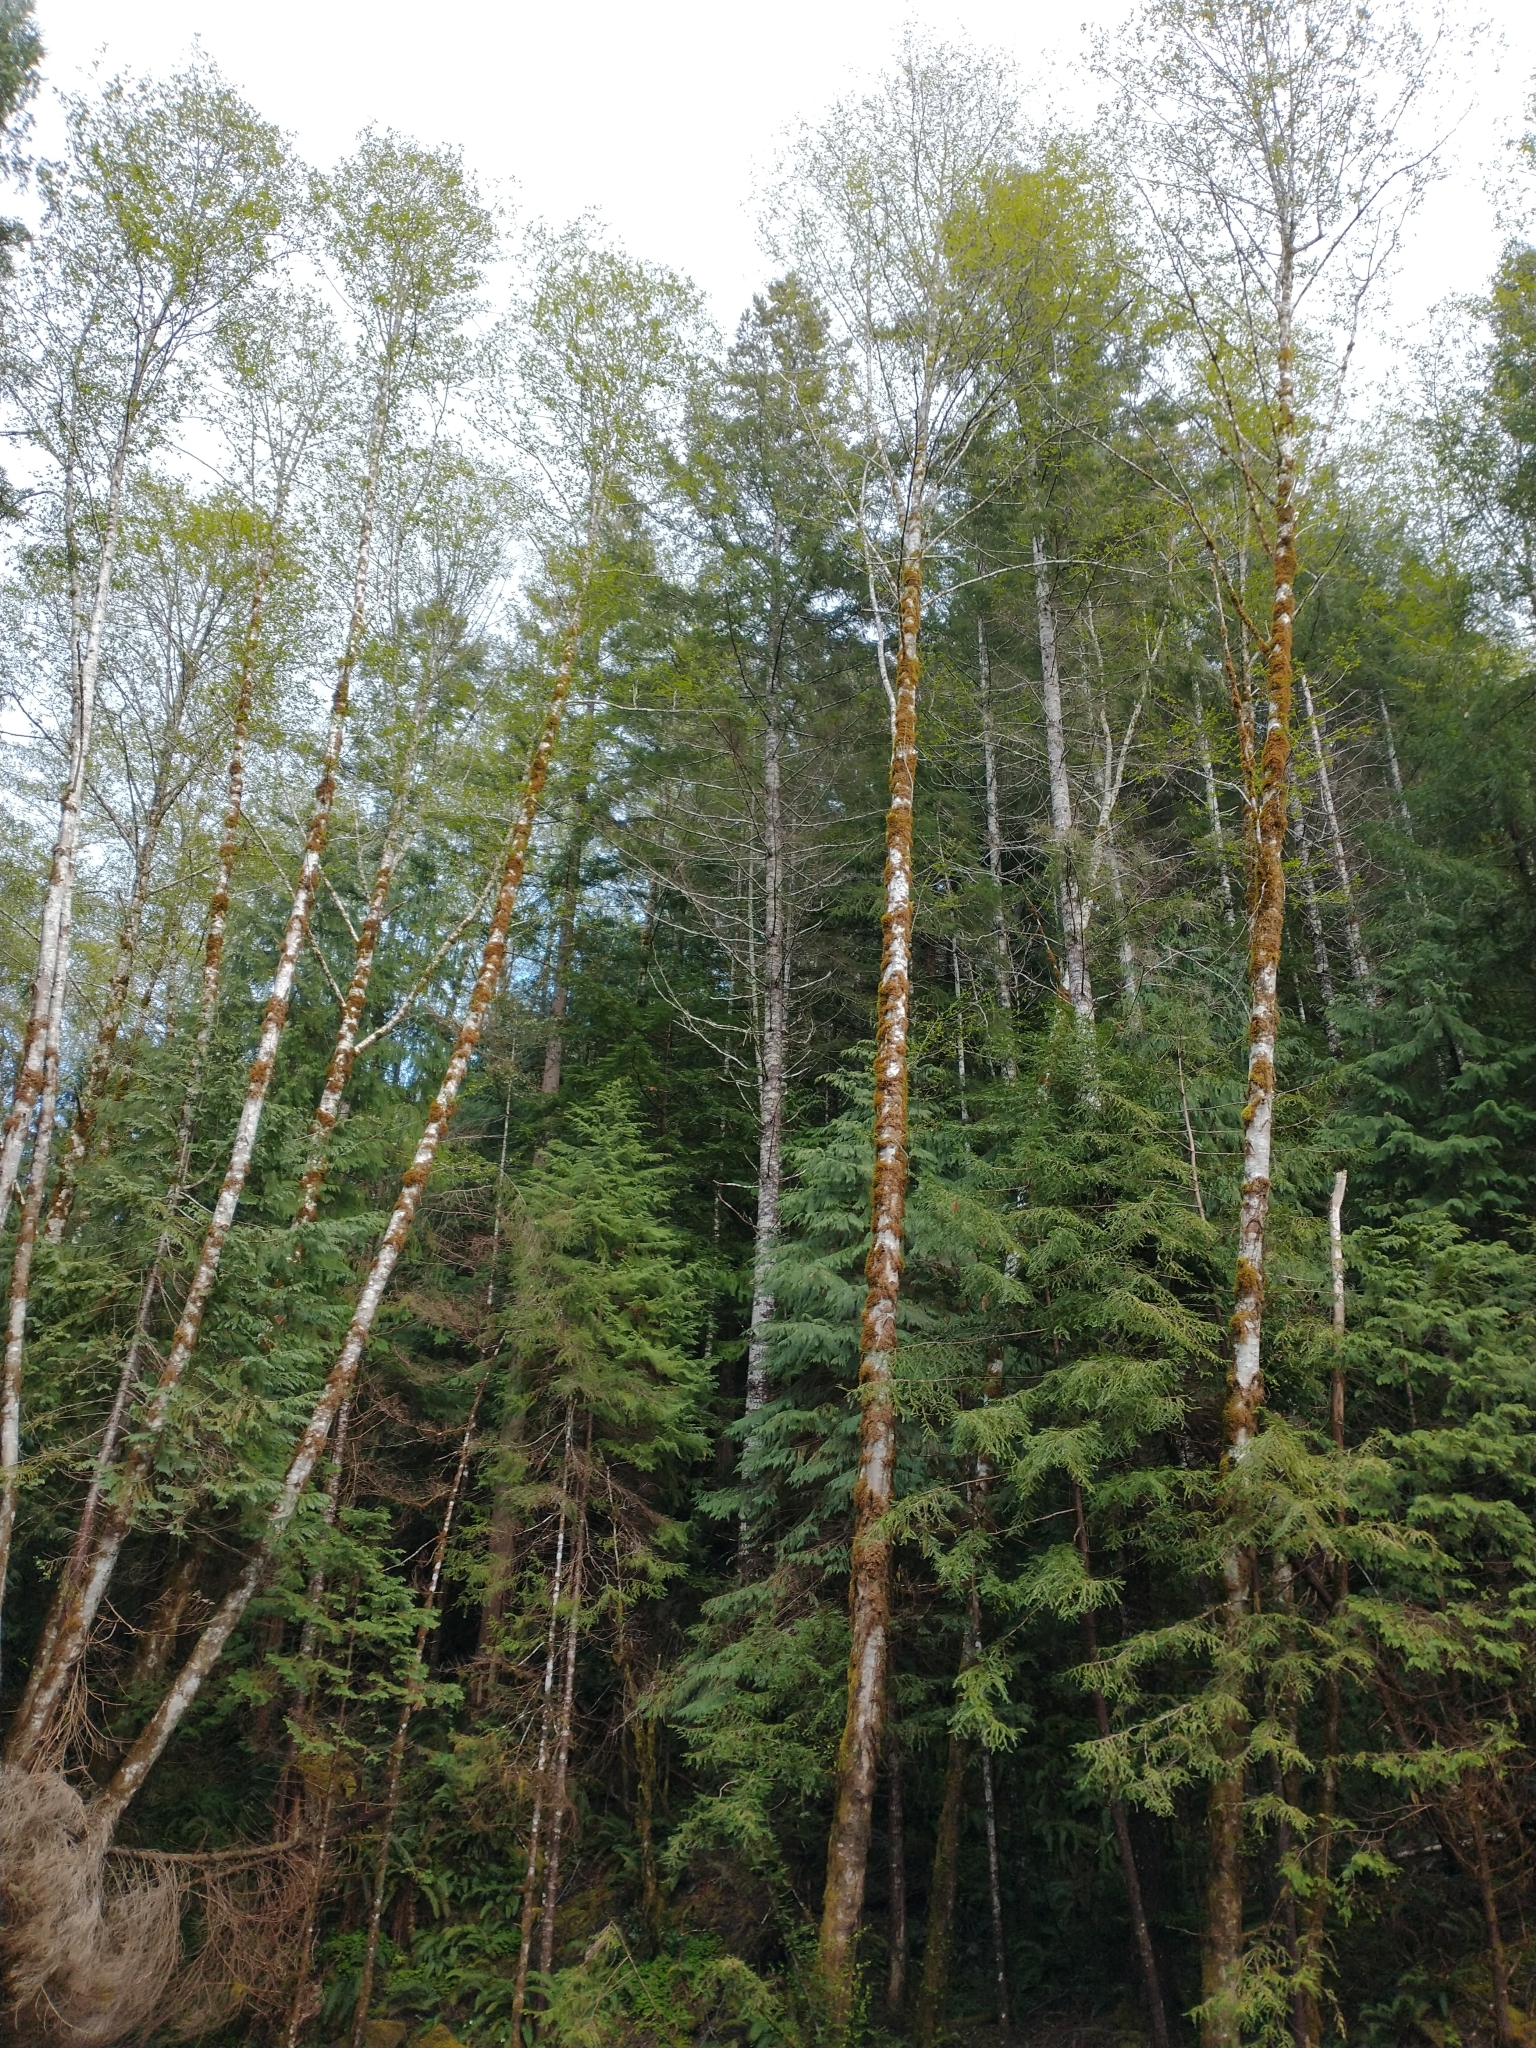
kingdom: Plantae
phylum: Tracheophyta
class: Pinopsida
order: Pinales
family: Cupressaceae
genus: Chamaecyparis
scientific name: Chamaecyparis lawsoniana
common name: Lawson's cypress
